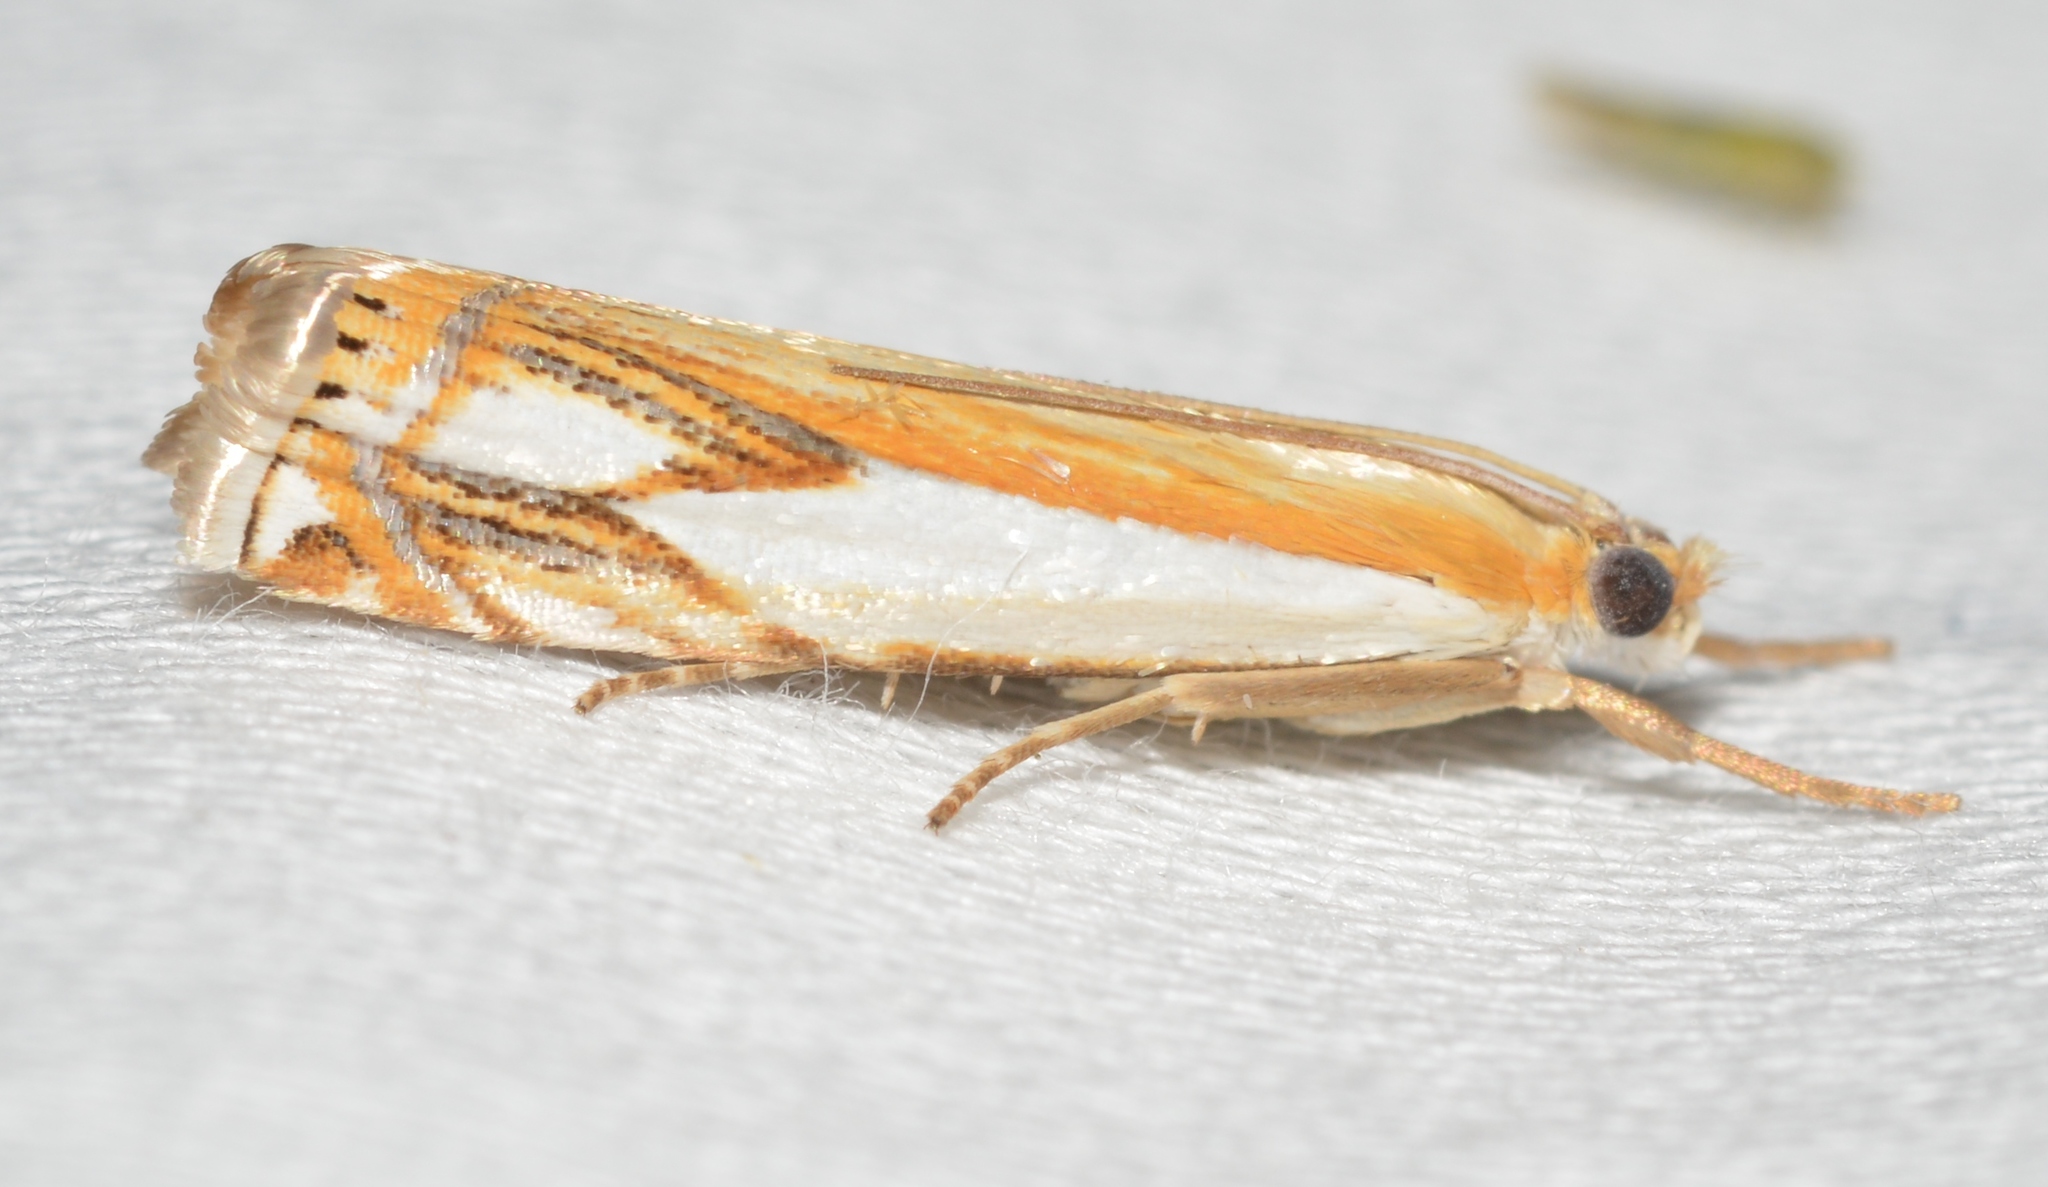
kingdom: Animalia
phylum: Arthropoda
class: Insecta
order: Lepidoptera
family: Crambidae
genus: Crambus
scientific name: Crambus agitatellus
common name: Double-banded grass-veneer
